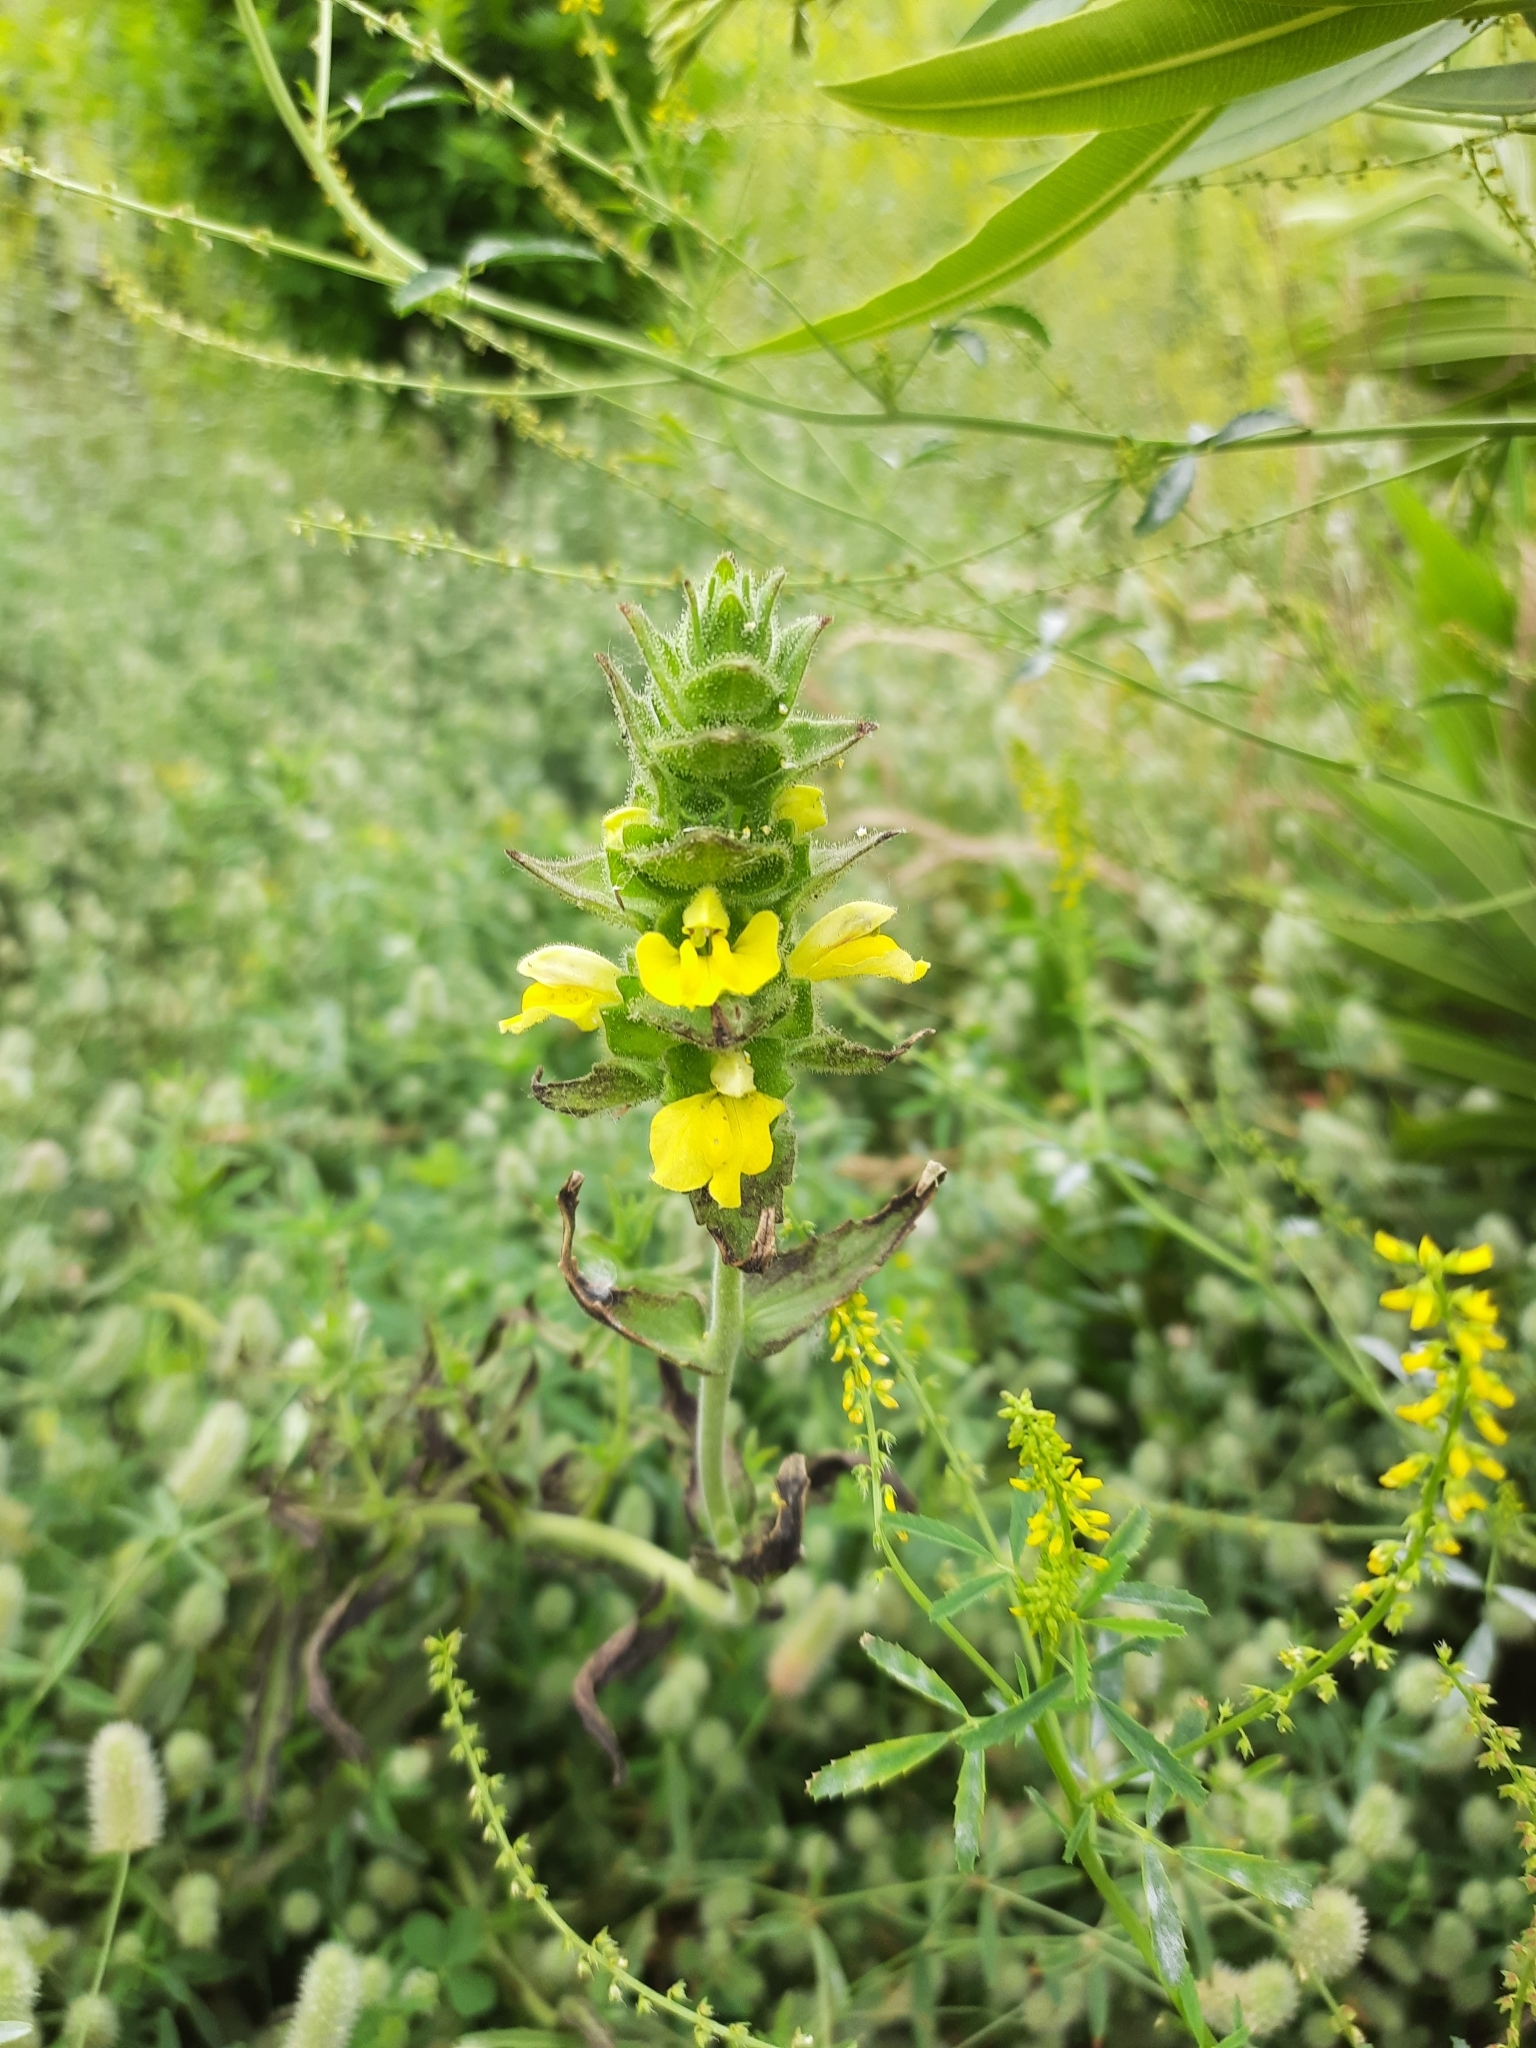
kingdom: Plantae
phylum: Tracheophyta
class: Magnoliopsida
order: Lamiales
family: Orobanchaceae
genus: Bellardia
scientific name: Bellardia trixago
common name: Mediterranean lineseed
